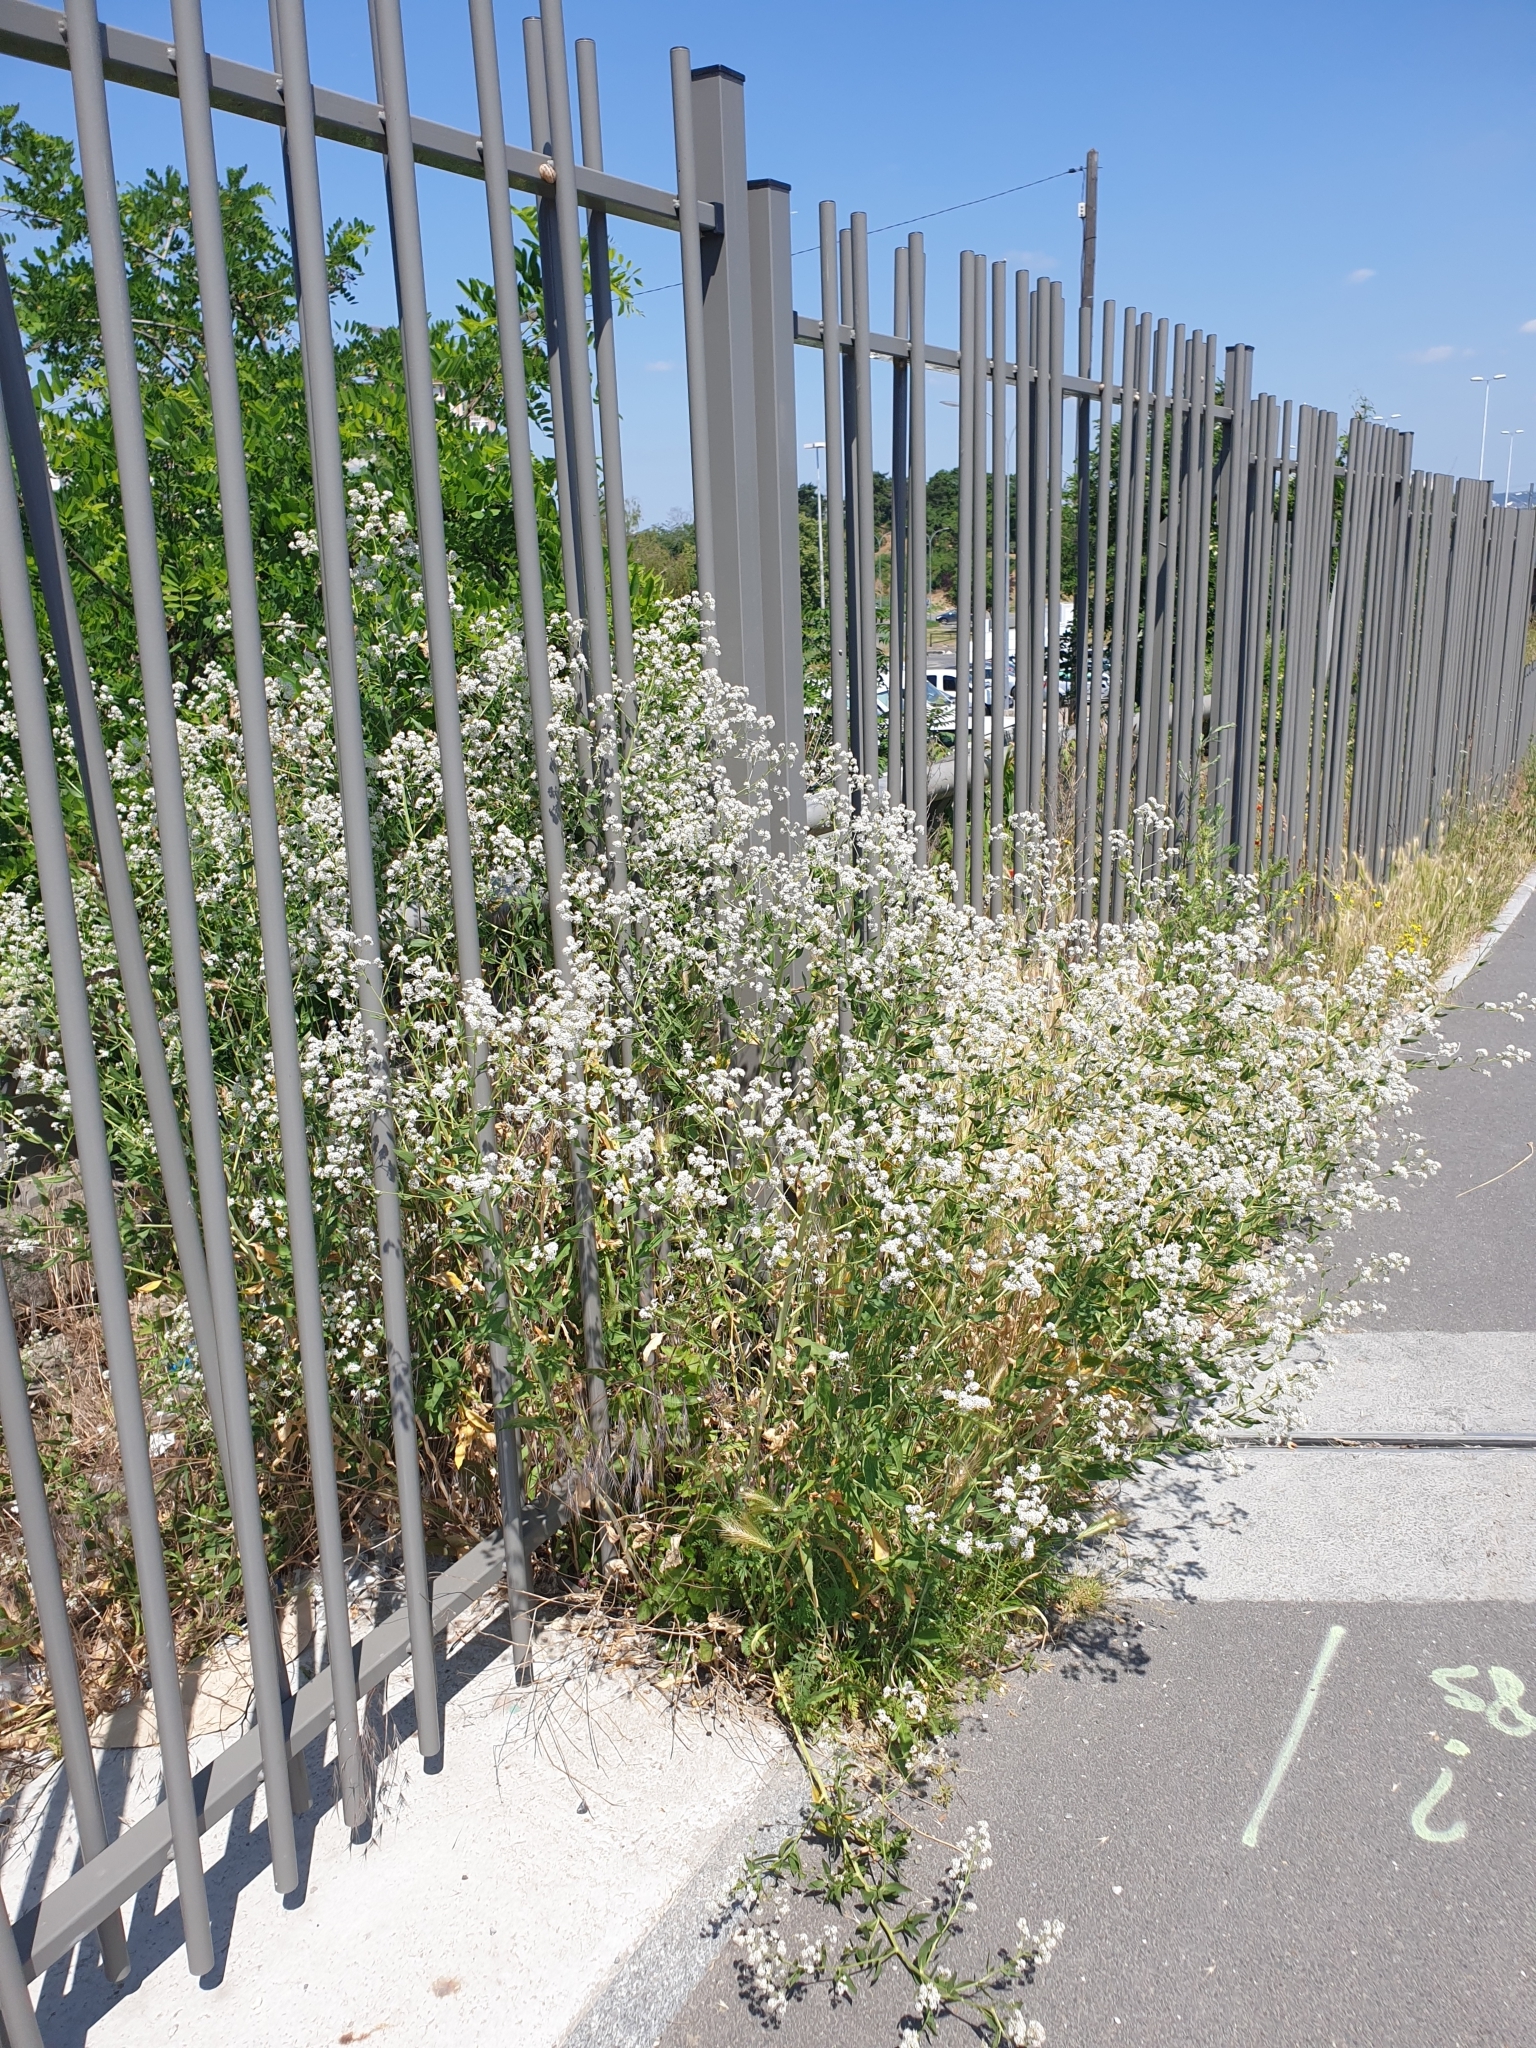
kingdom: Plantae
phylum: Tracheophyta
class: Magnoliopsida
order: Brassicales
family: Brassicaceae
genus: Lepidium
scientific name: Lepidium latifolium
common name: Dittander
